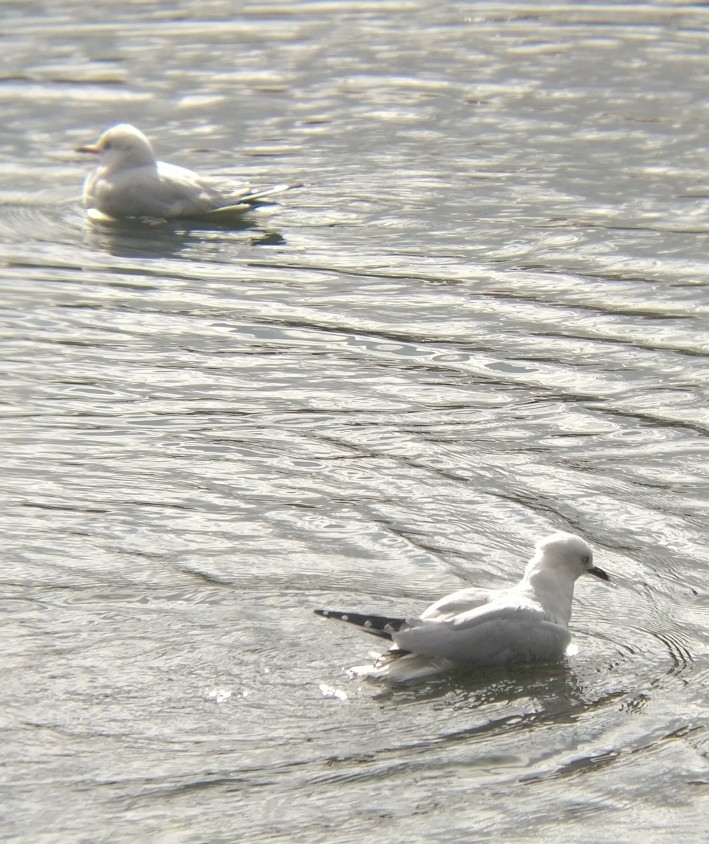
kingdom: Animalia
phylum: Chordata
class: Aves
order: Charadriiformes
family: Laridae
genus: Chroicocephalus
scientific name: Chroicocephalus bulleri
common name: Black-billed gull
